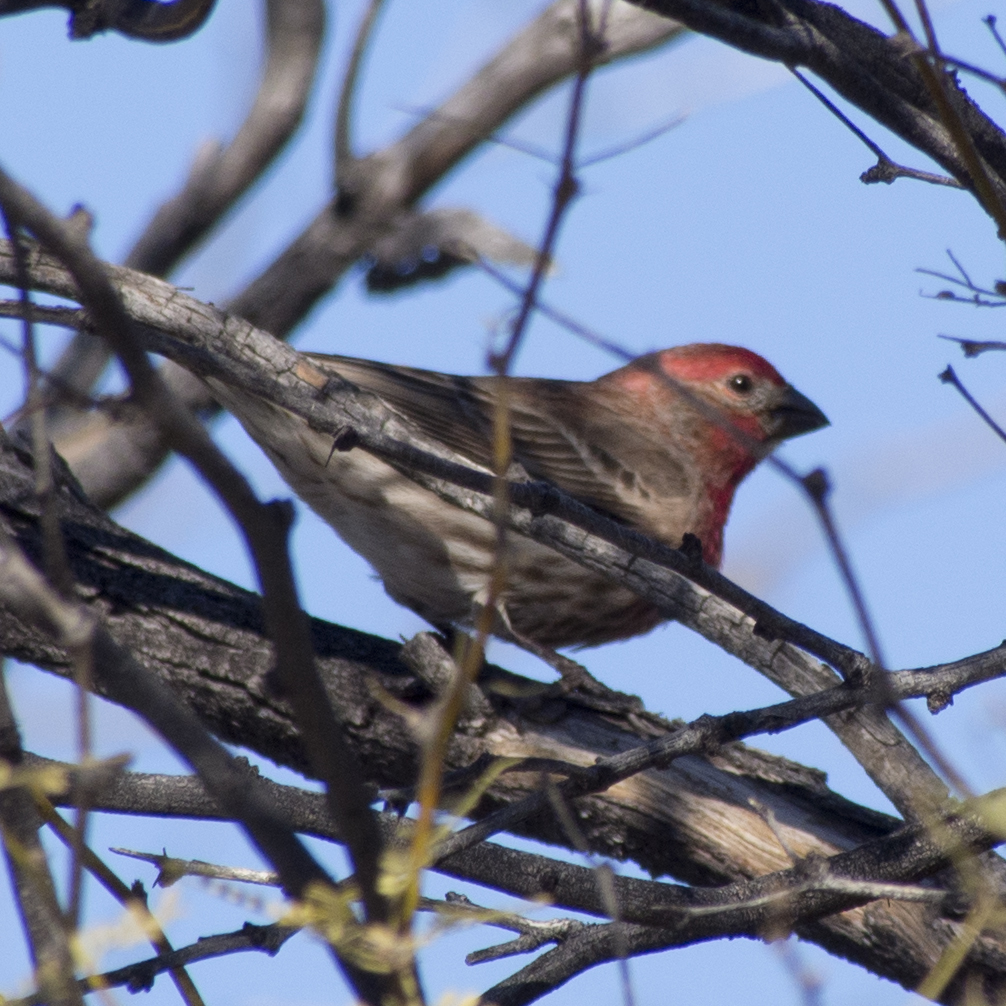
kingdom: Animalia
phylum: Chordata
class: Aves
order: Passeriformes
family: Fringillidae
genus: Haemorhous
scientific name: Haemorhous mexicanus
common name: House finch
